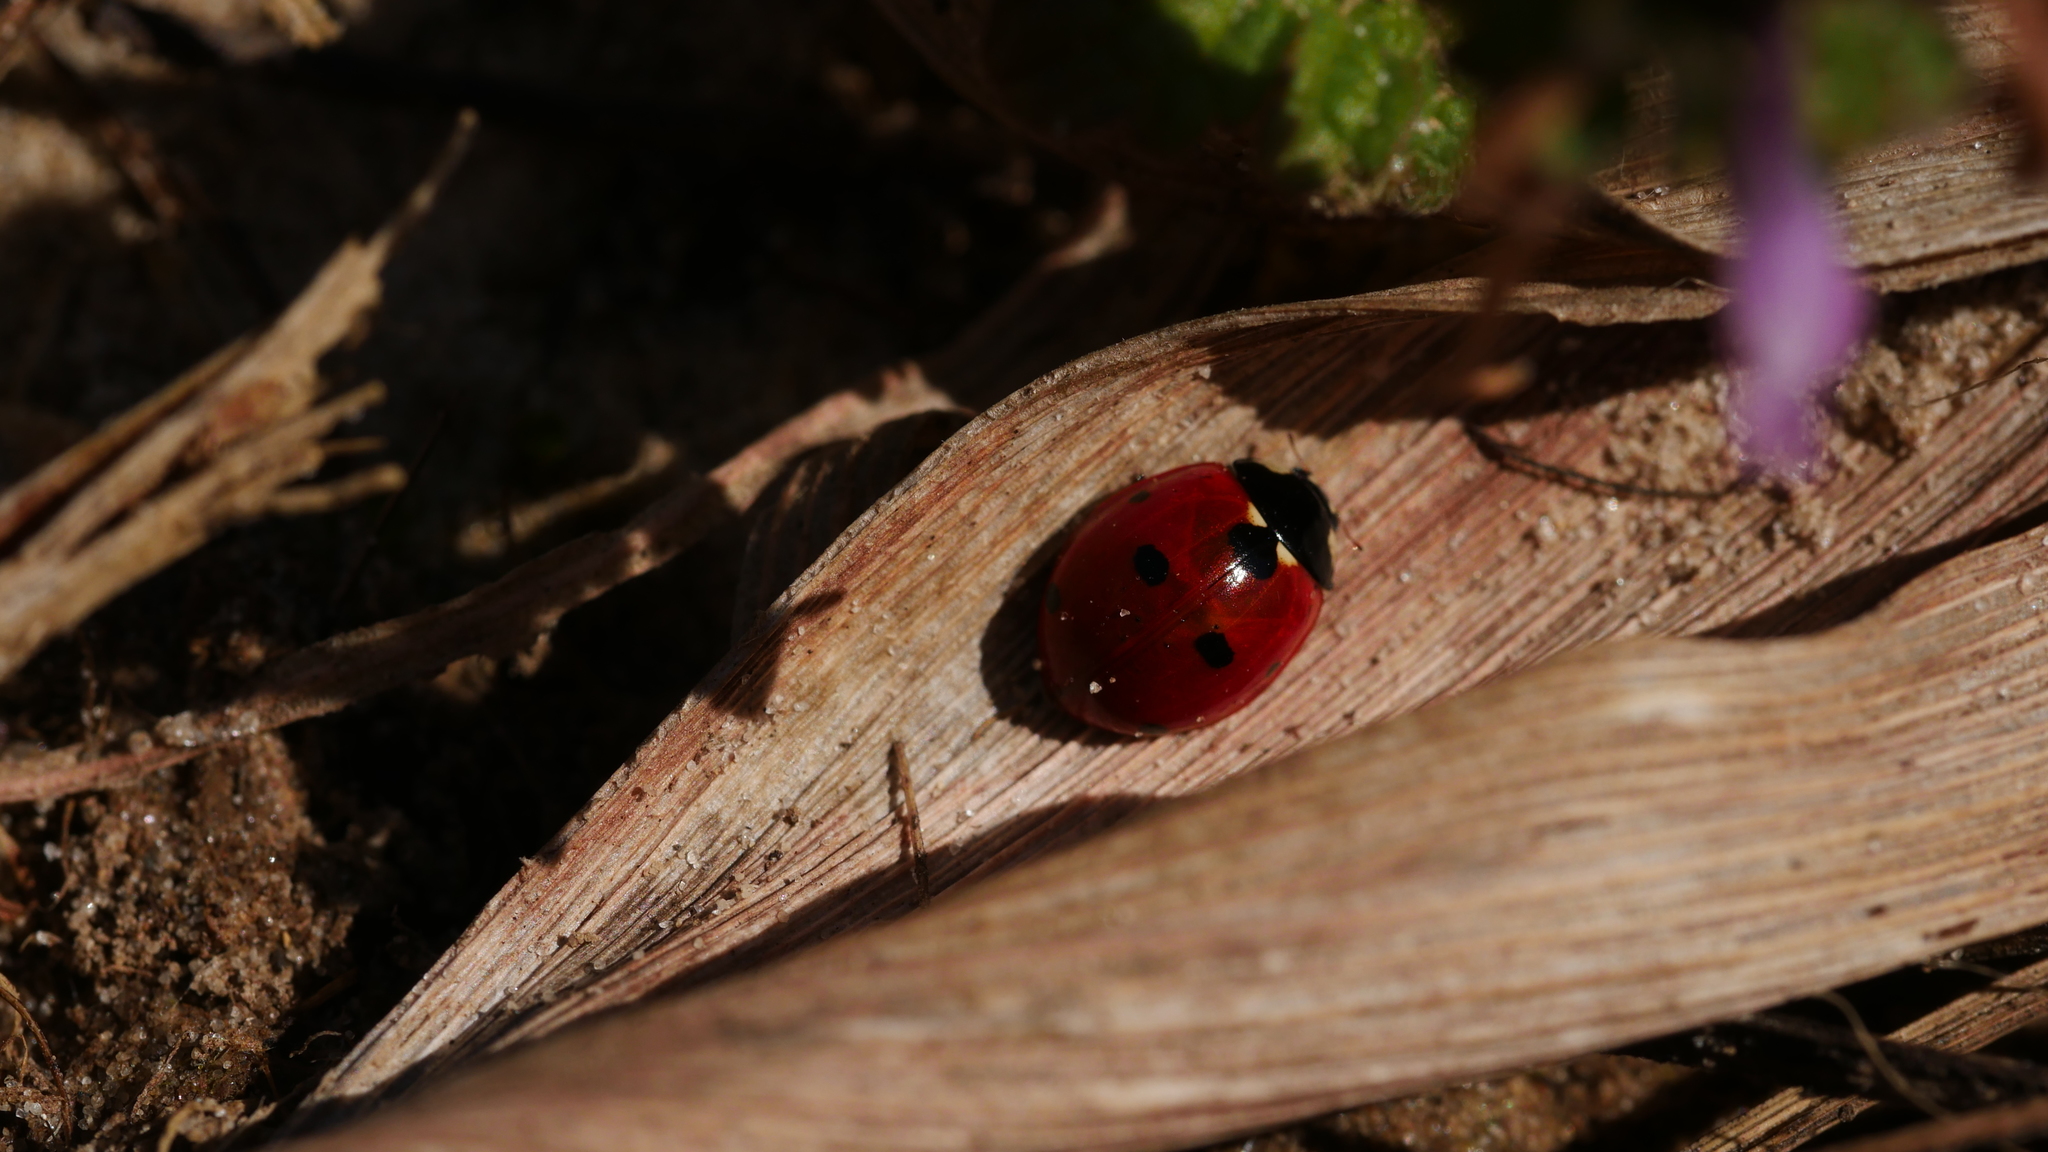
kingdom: Animalia
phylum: Arthropoda
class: Insecta
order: Coleoptera
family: Coccinellidae
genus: Coccinella
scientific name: Coccinella septempunctata
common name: Sevenspotted lady beetle
